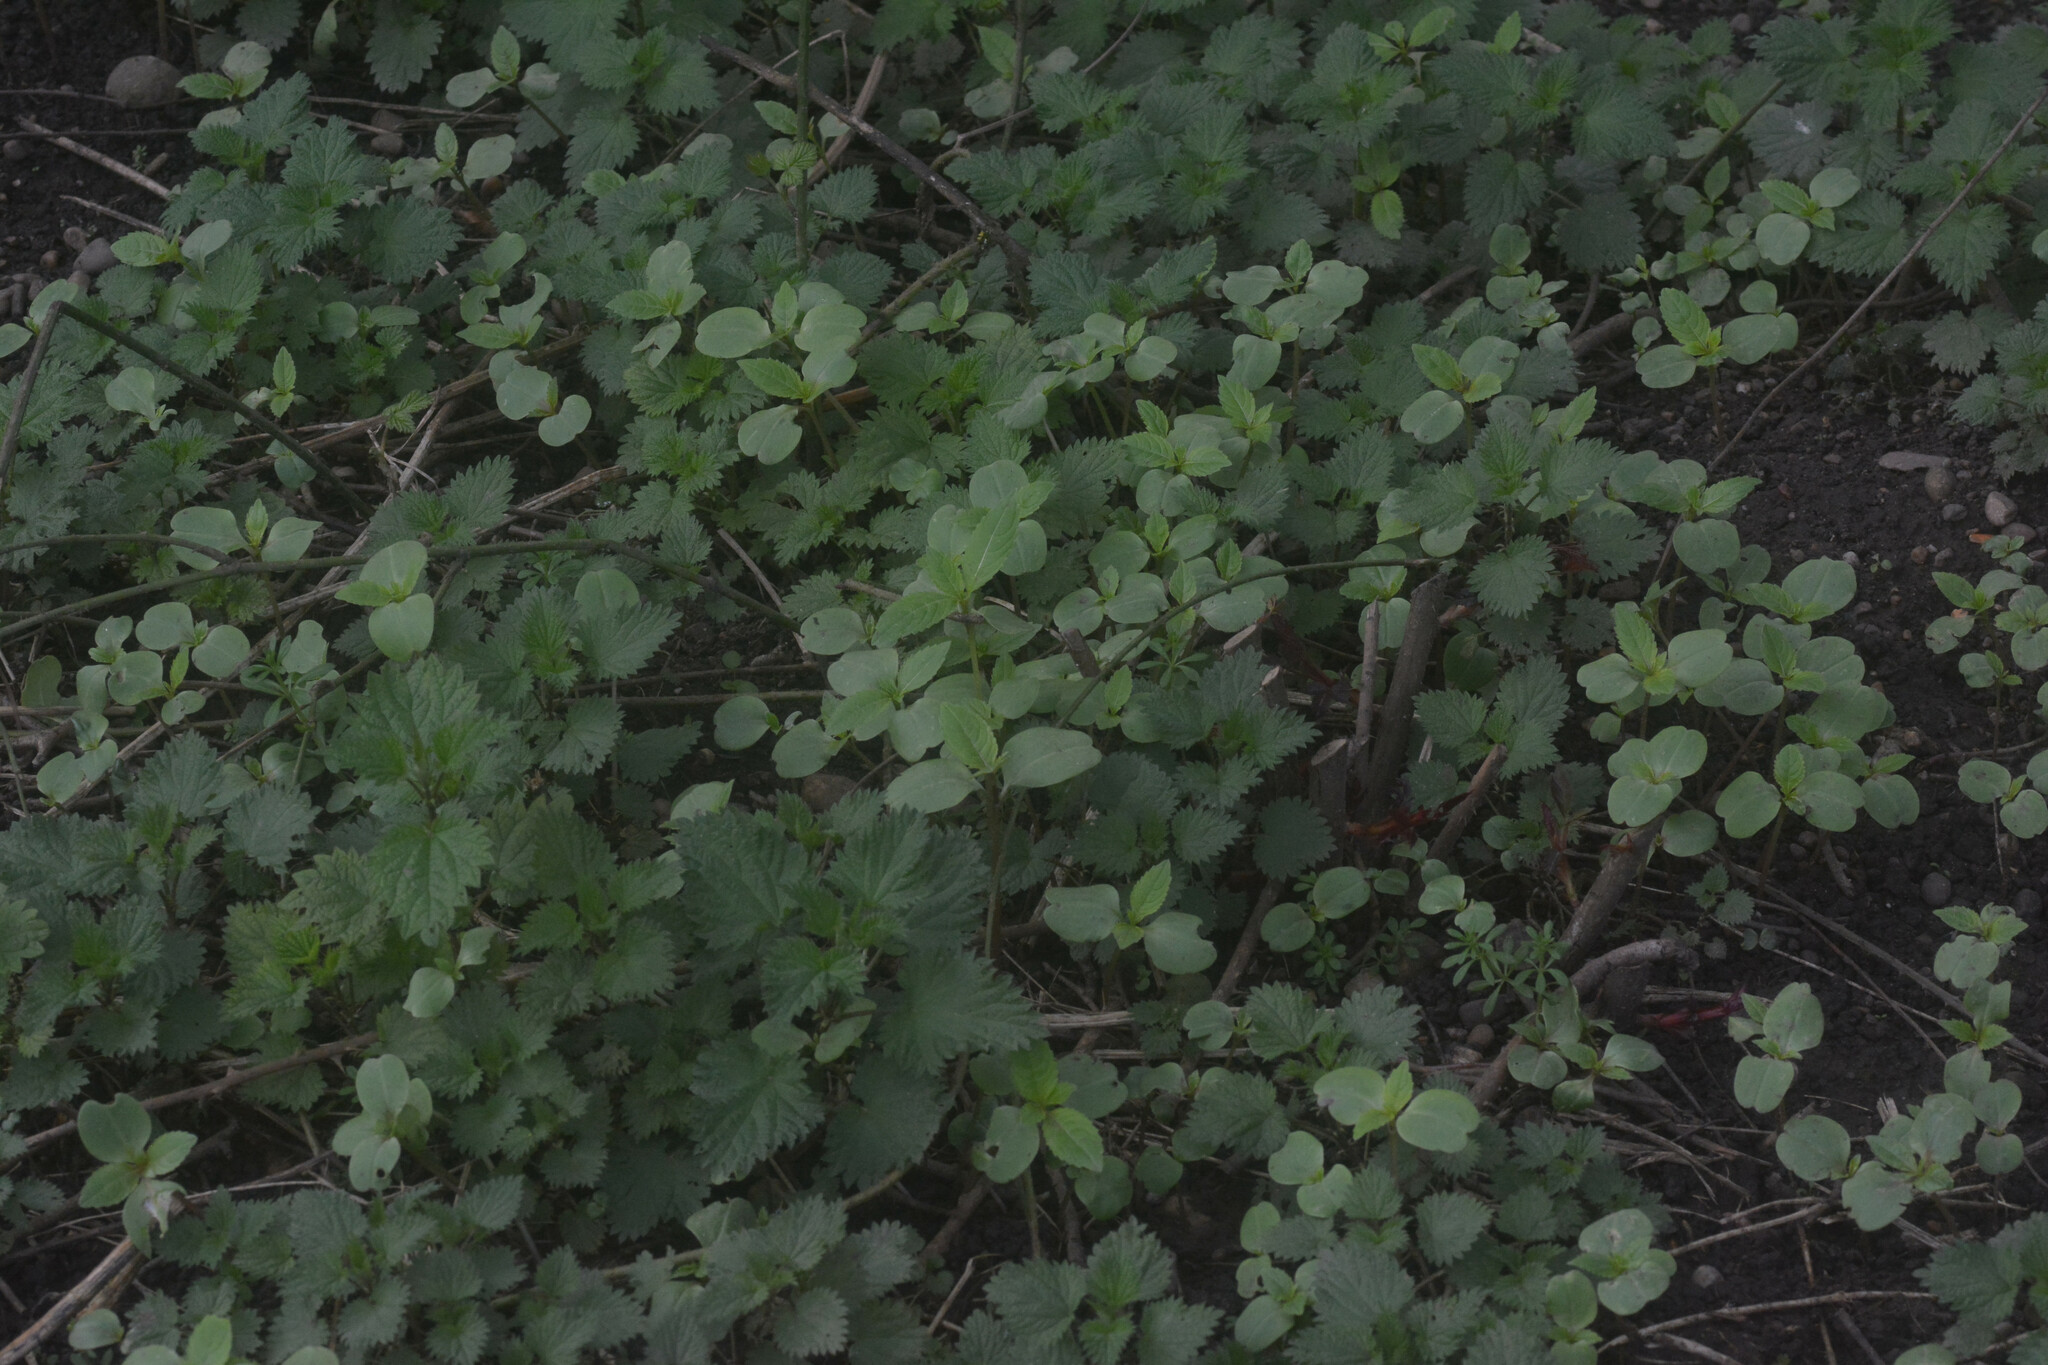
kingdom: Plantae
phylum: Tracheophyta
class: Magnoliopsida
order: Ericales
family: Balsaminaceae
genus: Impatiens
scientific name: Impatiens glandulifera
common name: Himalayan balsam
